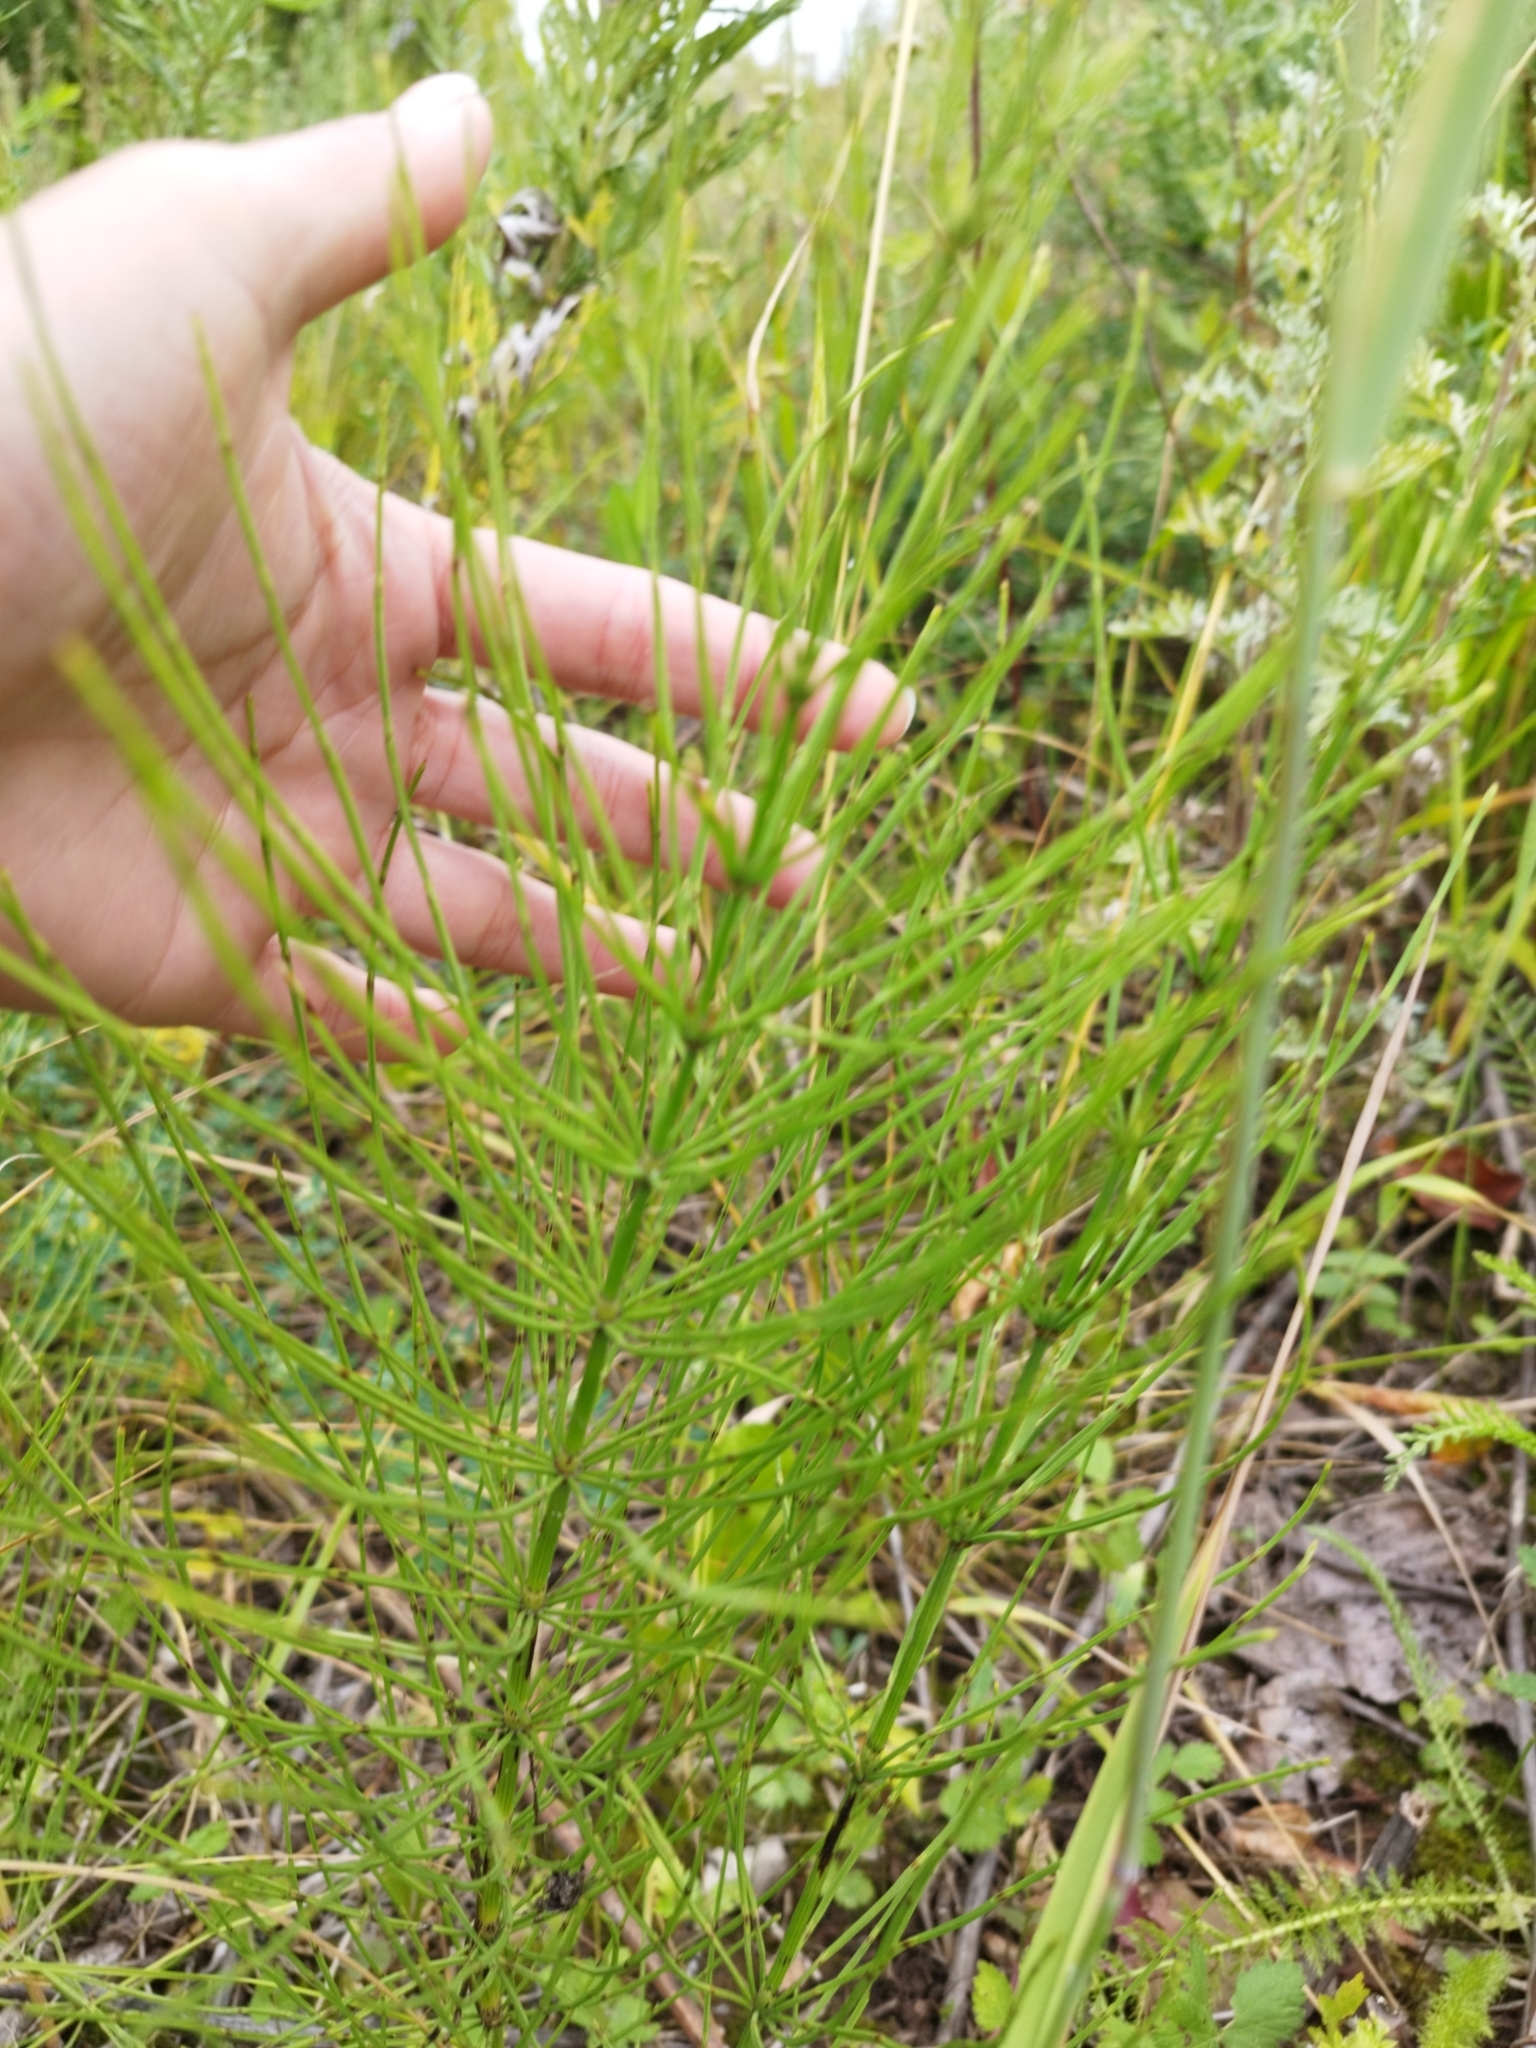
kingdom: Plantae
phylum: Tracheophyta
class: Polypodiopsida
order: Equisetales
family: Equisetaceae
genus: Equisetum
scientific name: Equisetum arvense
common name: Field horsetail
